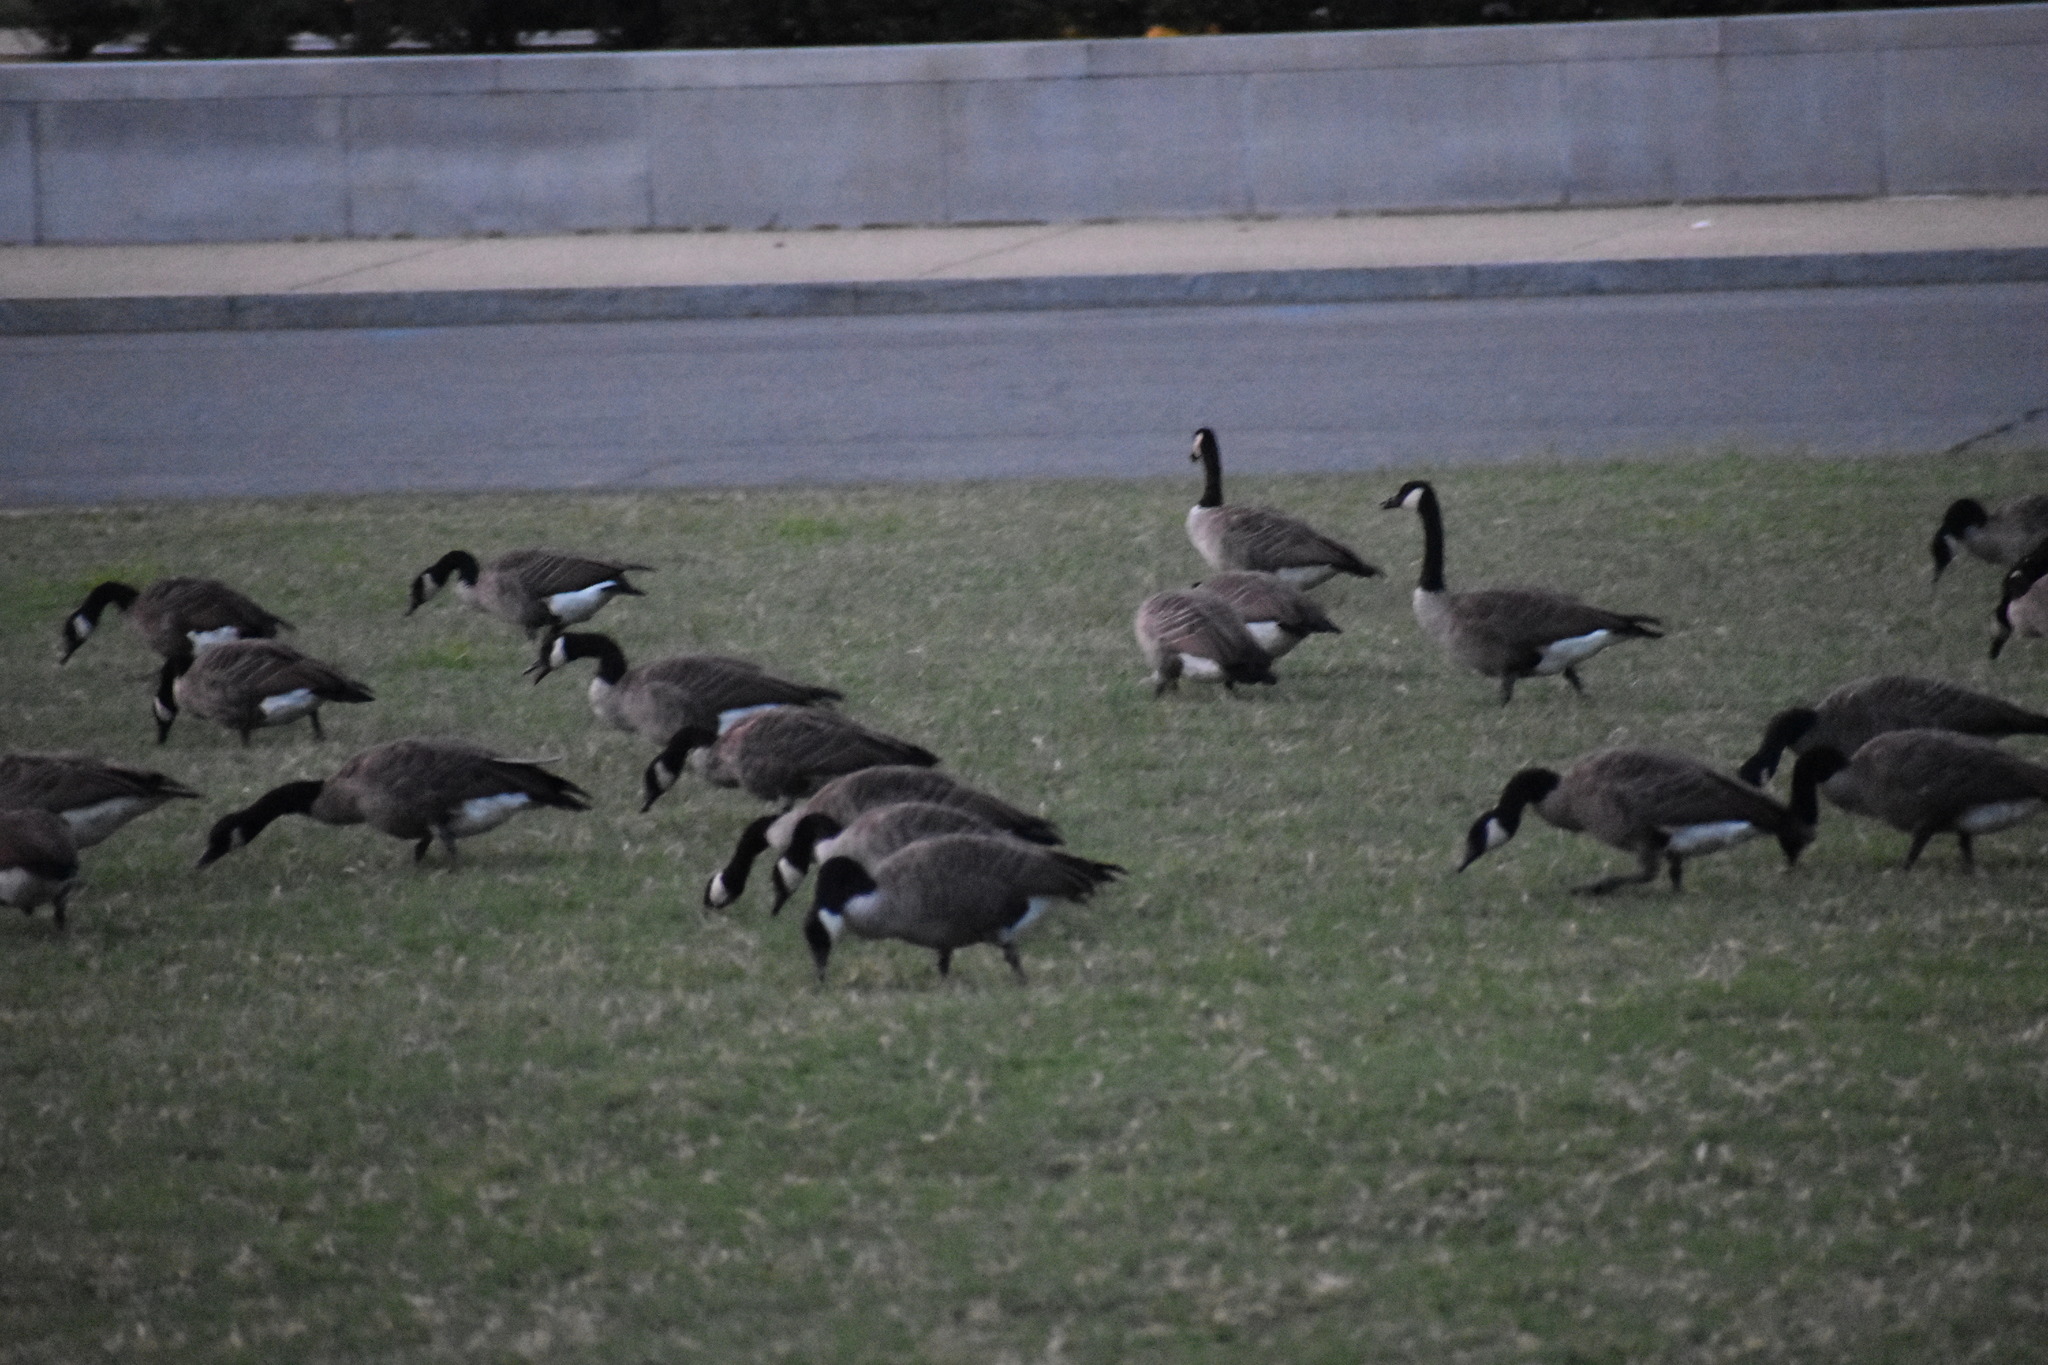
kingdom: Animalia
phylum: Chordata
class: Aves
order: Anseriformes
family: Anatidae
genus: Branta
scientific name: Branta canadensis
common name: Canada goose
